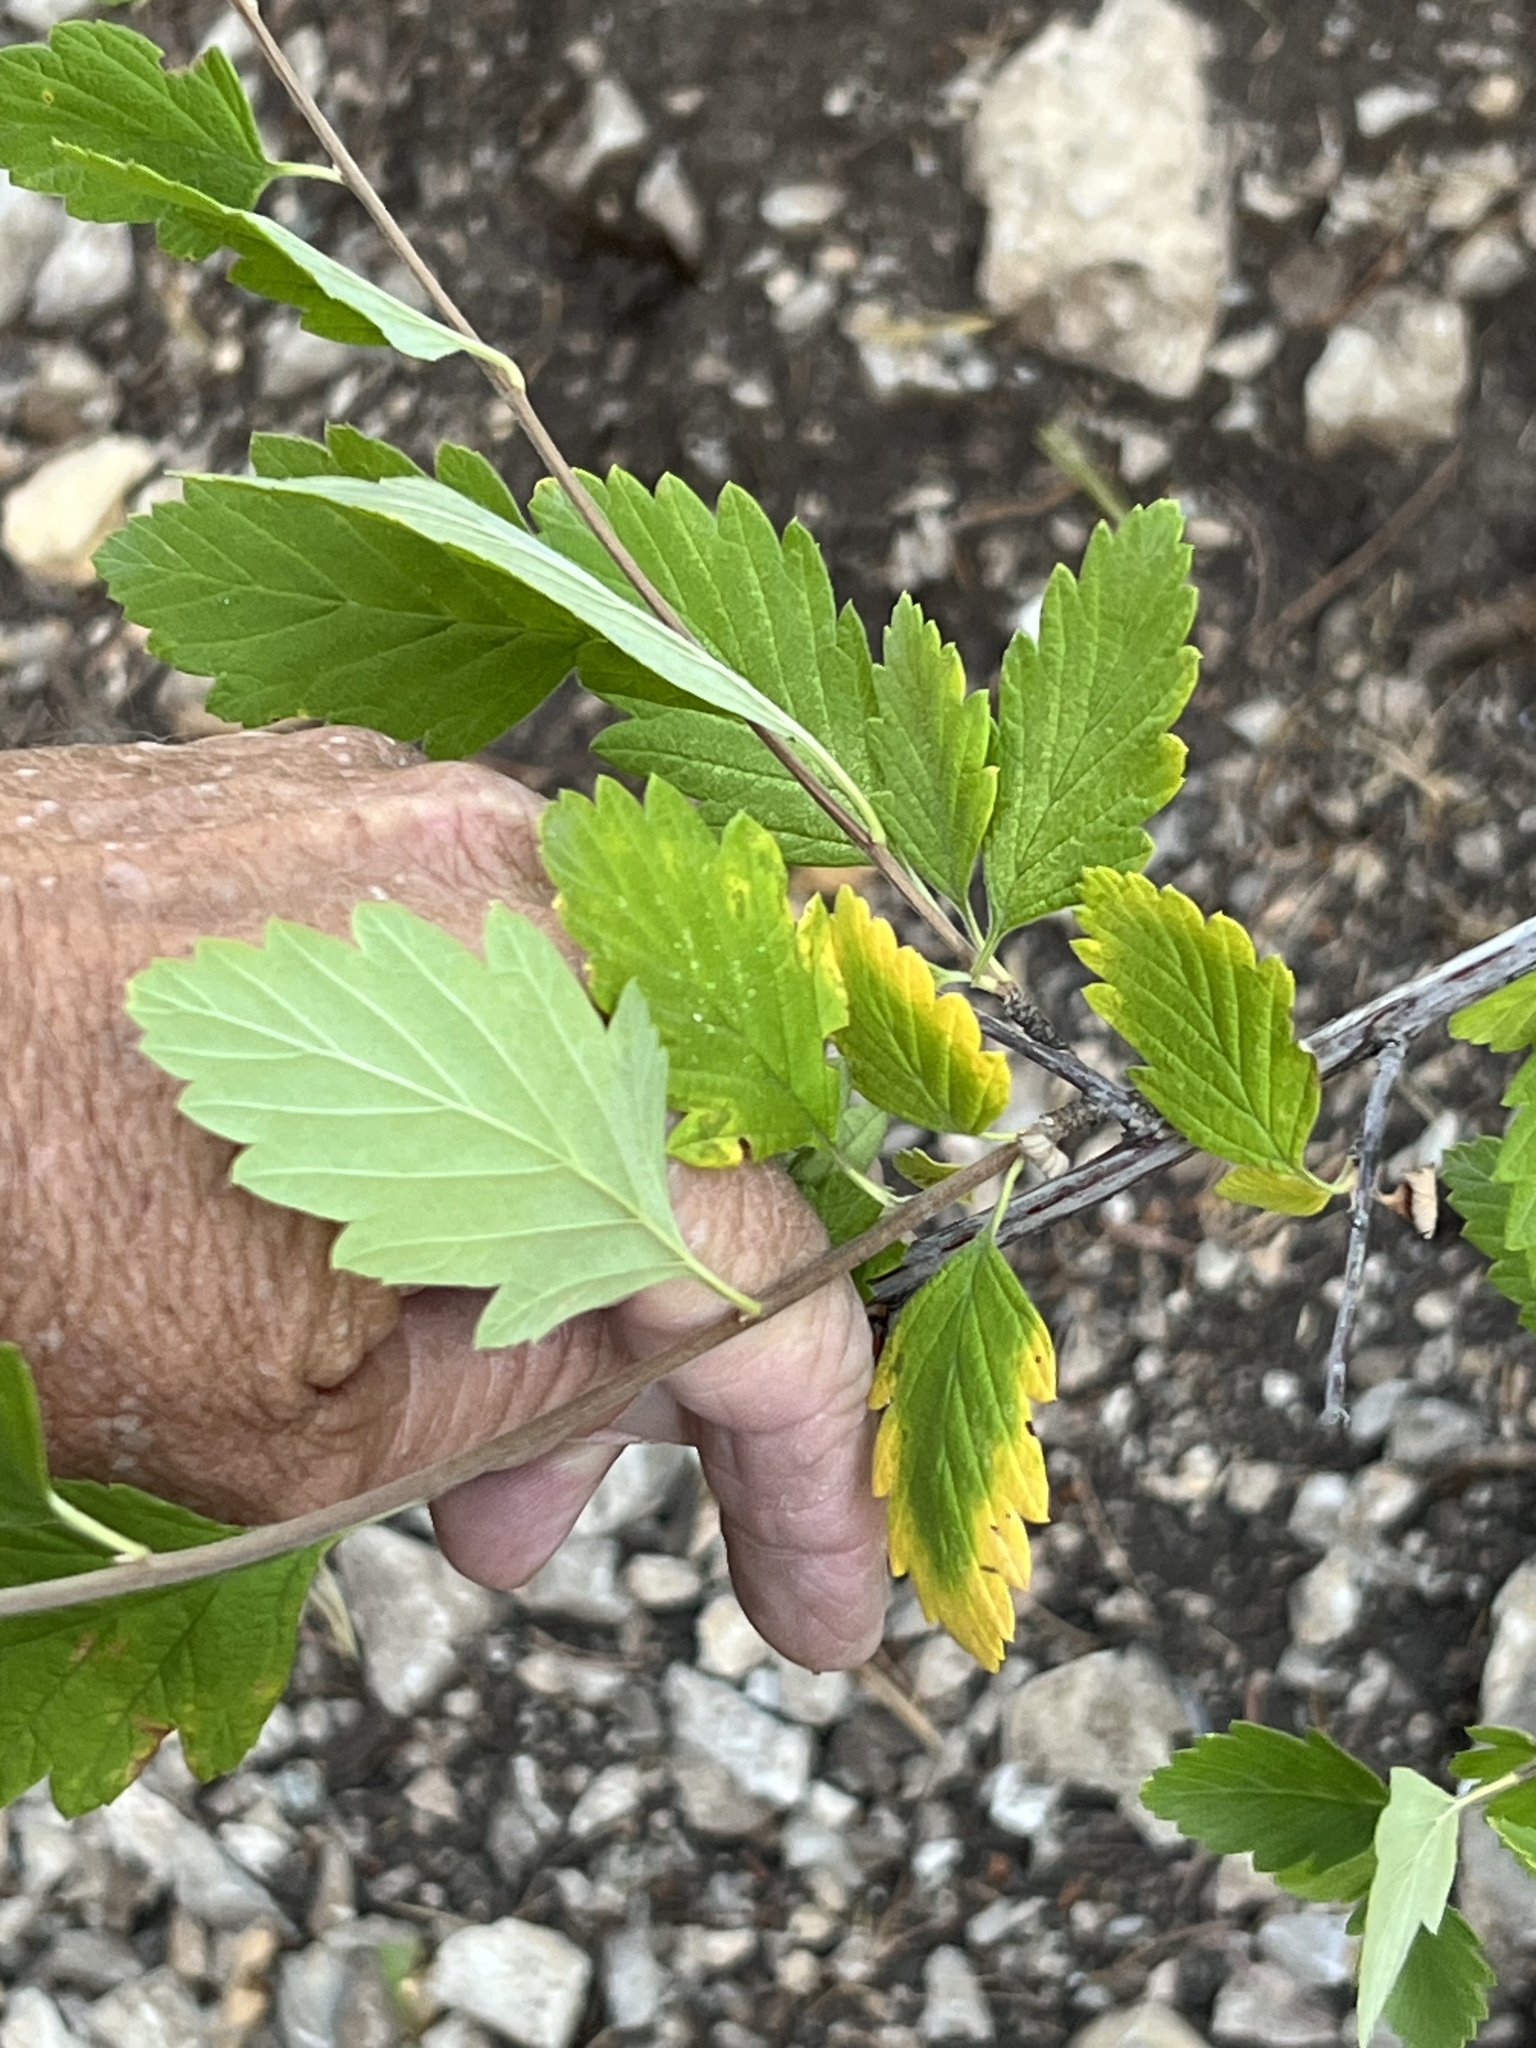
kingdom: Plantae
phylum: Tracheophyta
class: Magnoliopsida
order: Rosales
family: Rosaceae
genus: Holodiscus
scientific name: Holodiscus discolor
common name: Oceanspray
